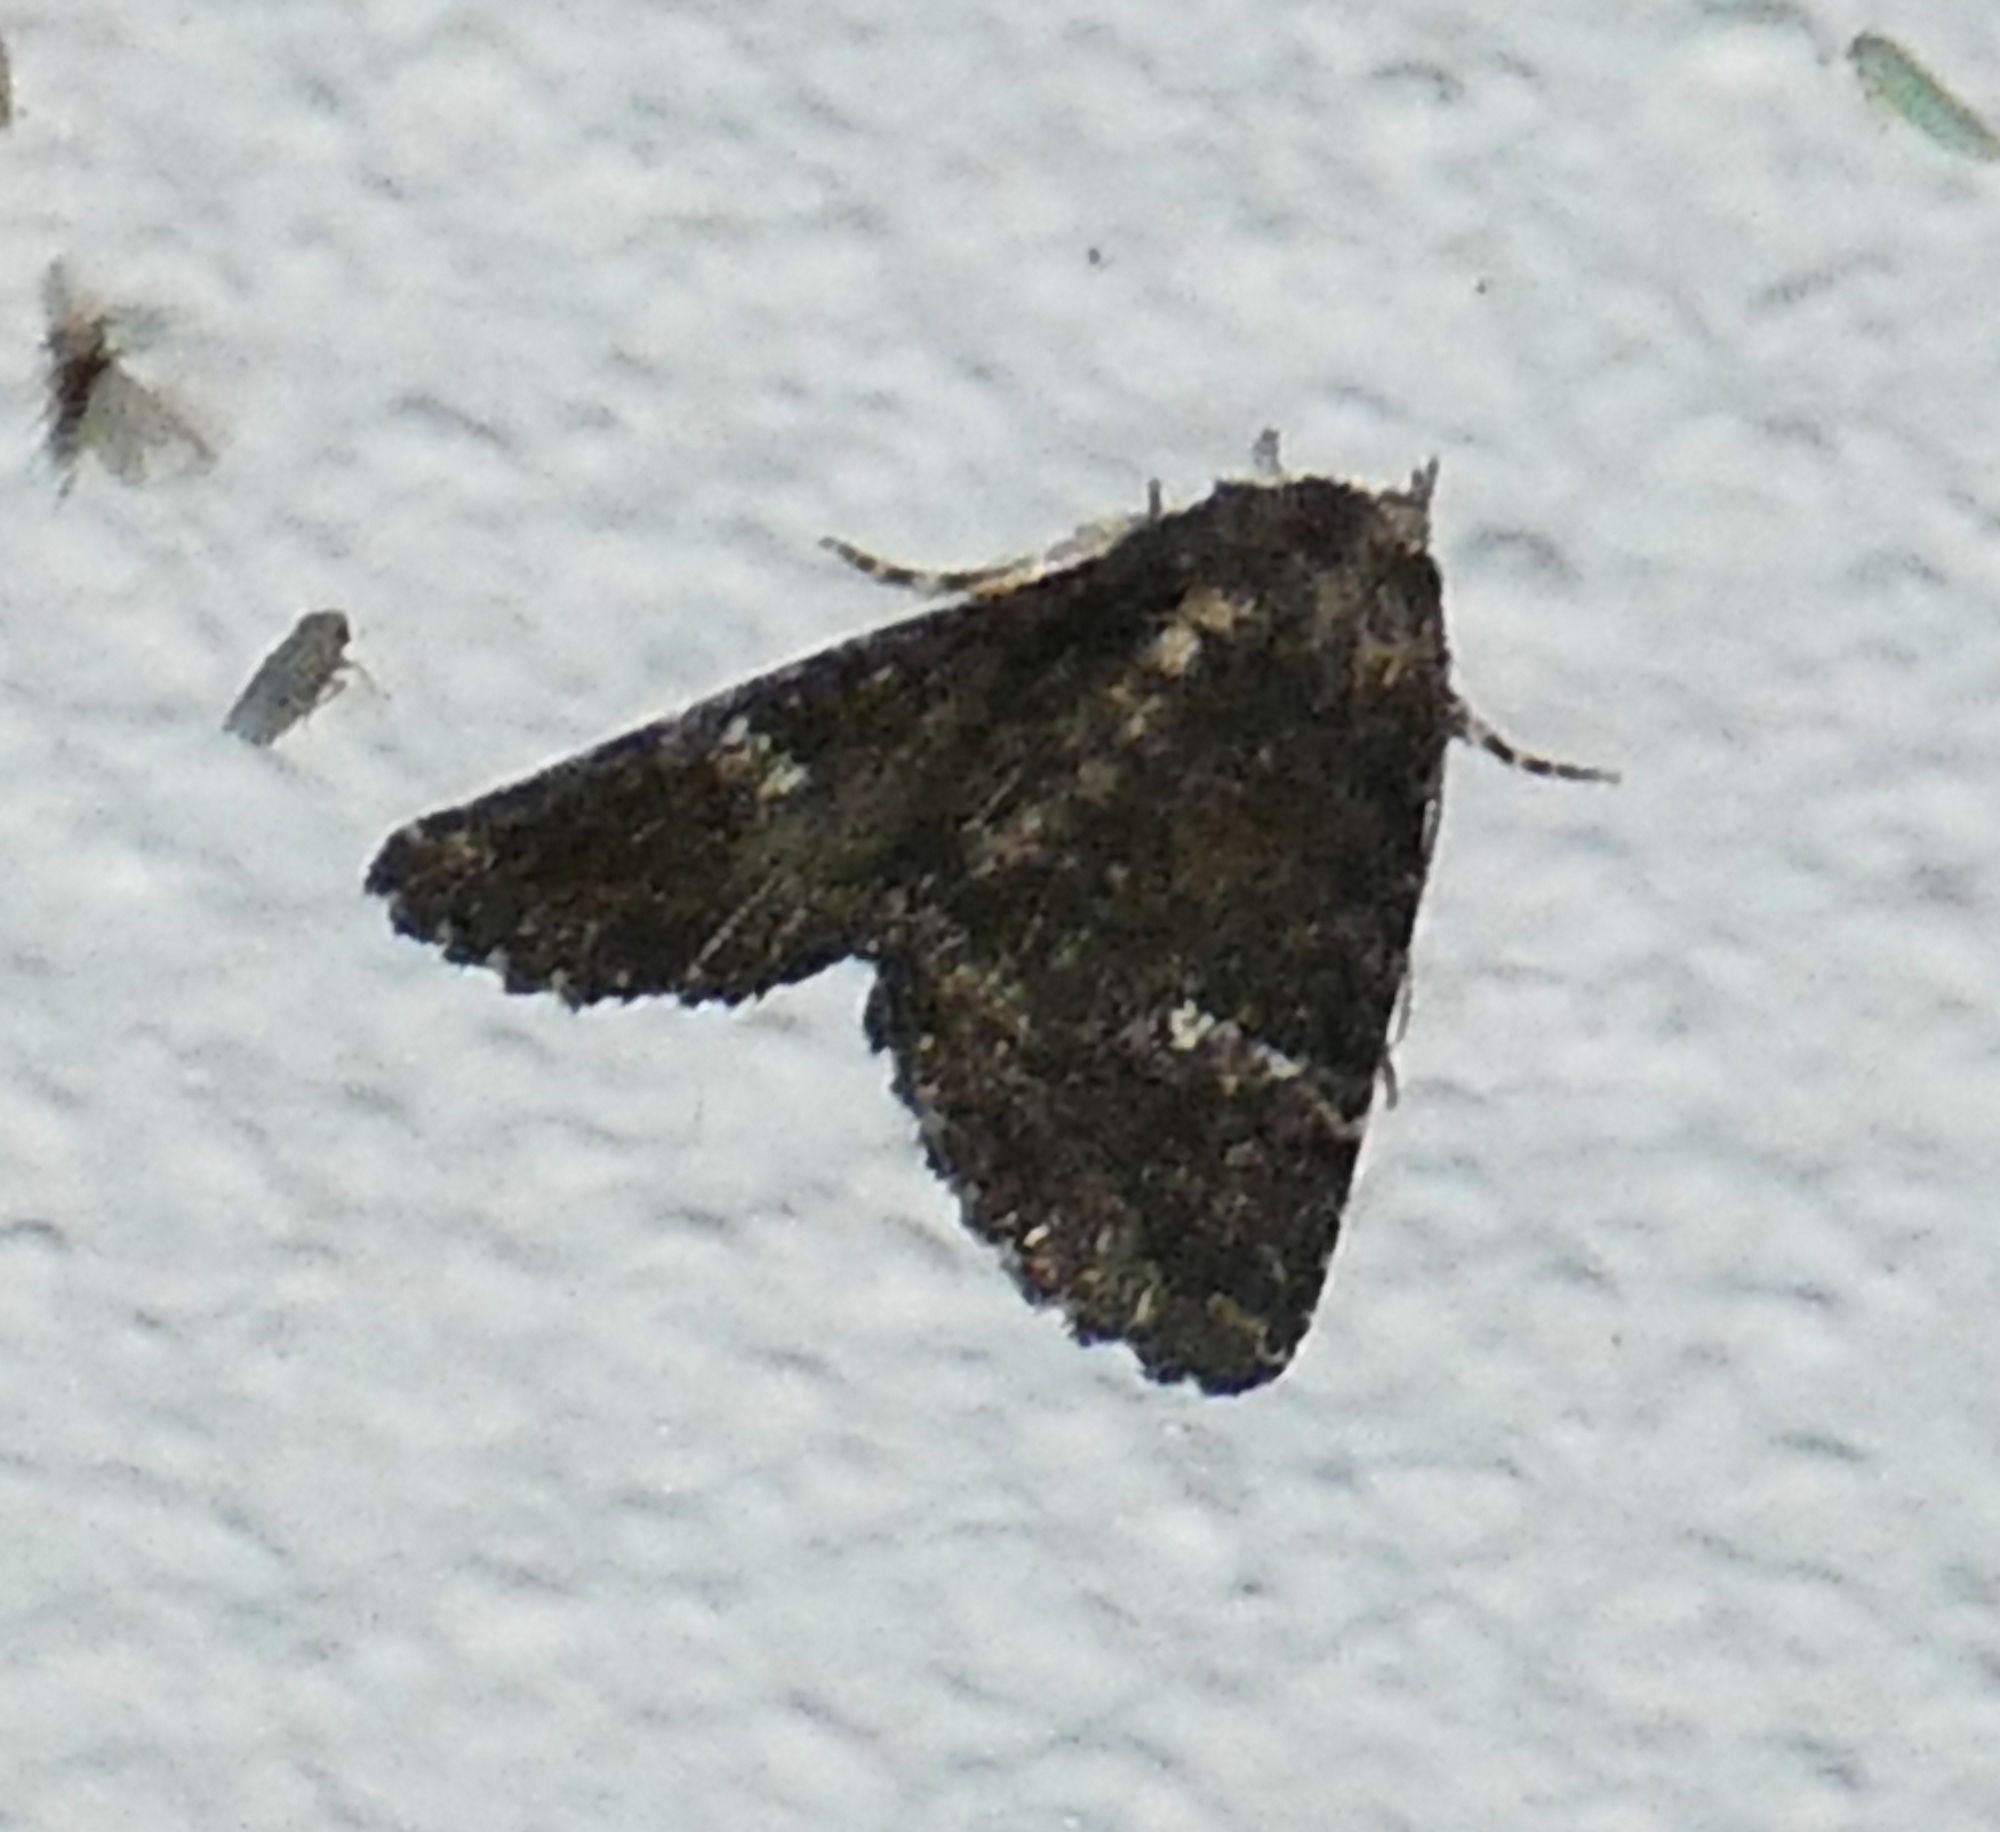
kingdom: Animalia
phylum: Arthropoda
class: Insecta
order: Lepidoptera
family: Erebidae
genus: Coxina
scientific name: Coxina cinctipalpis
